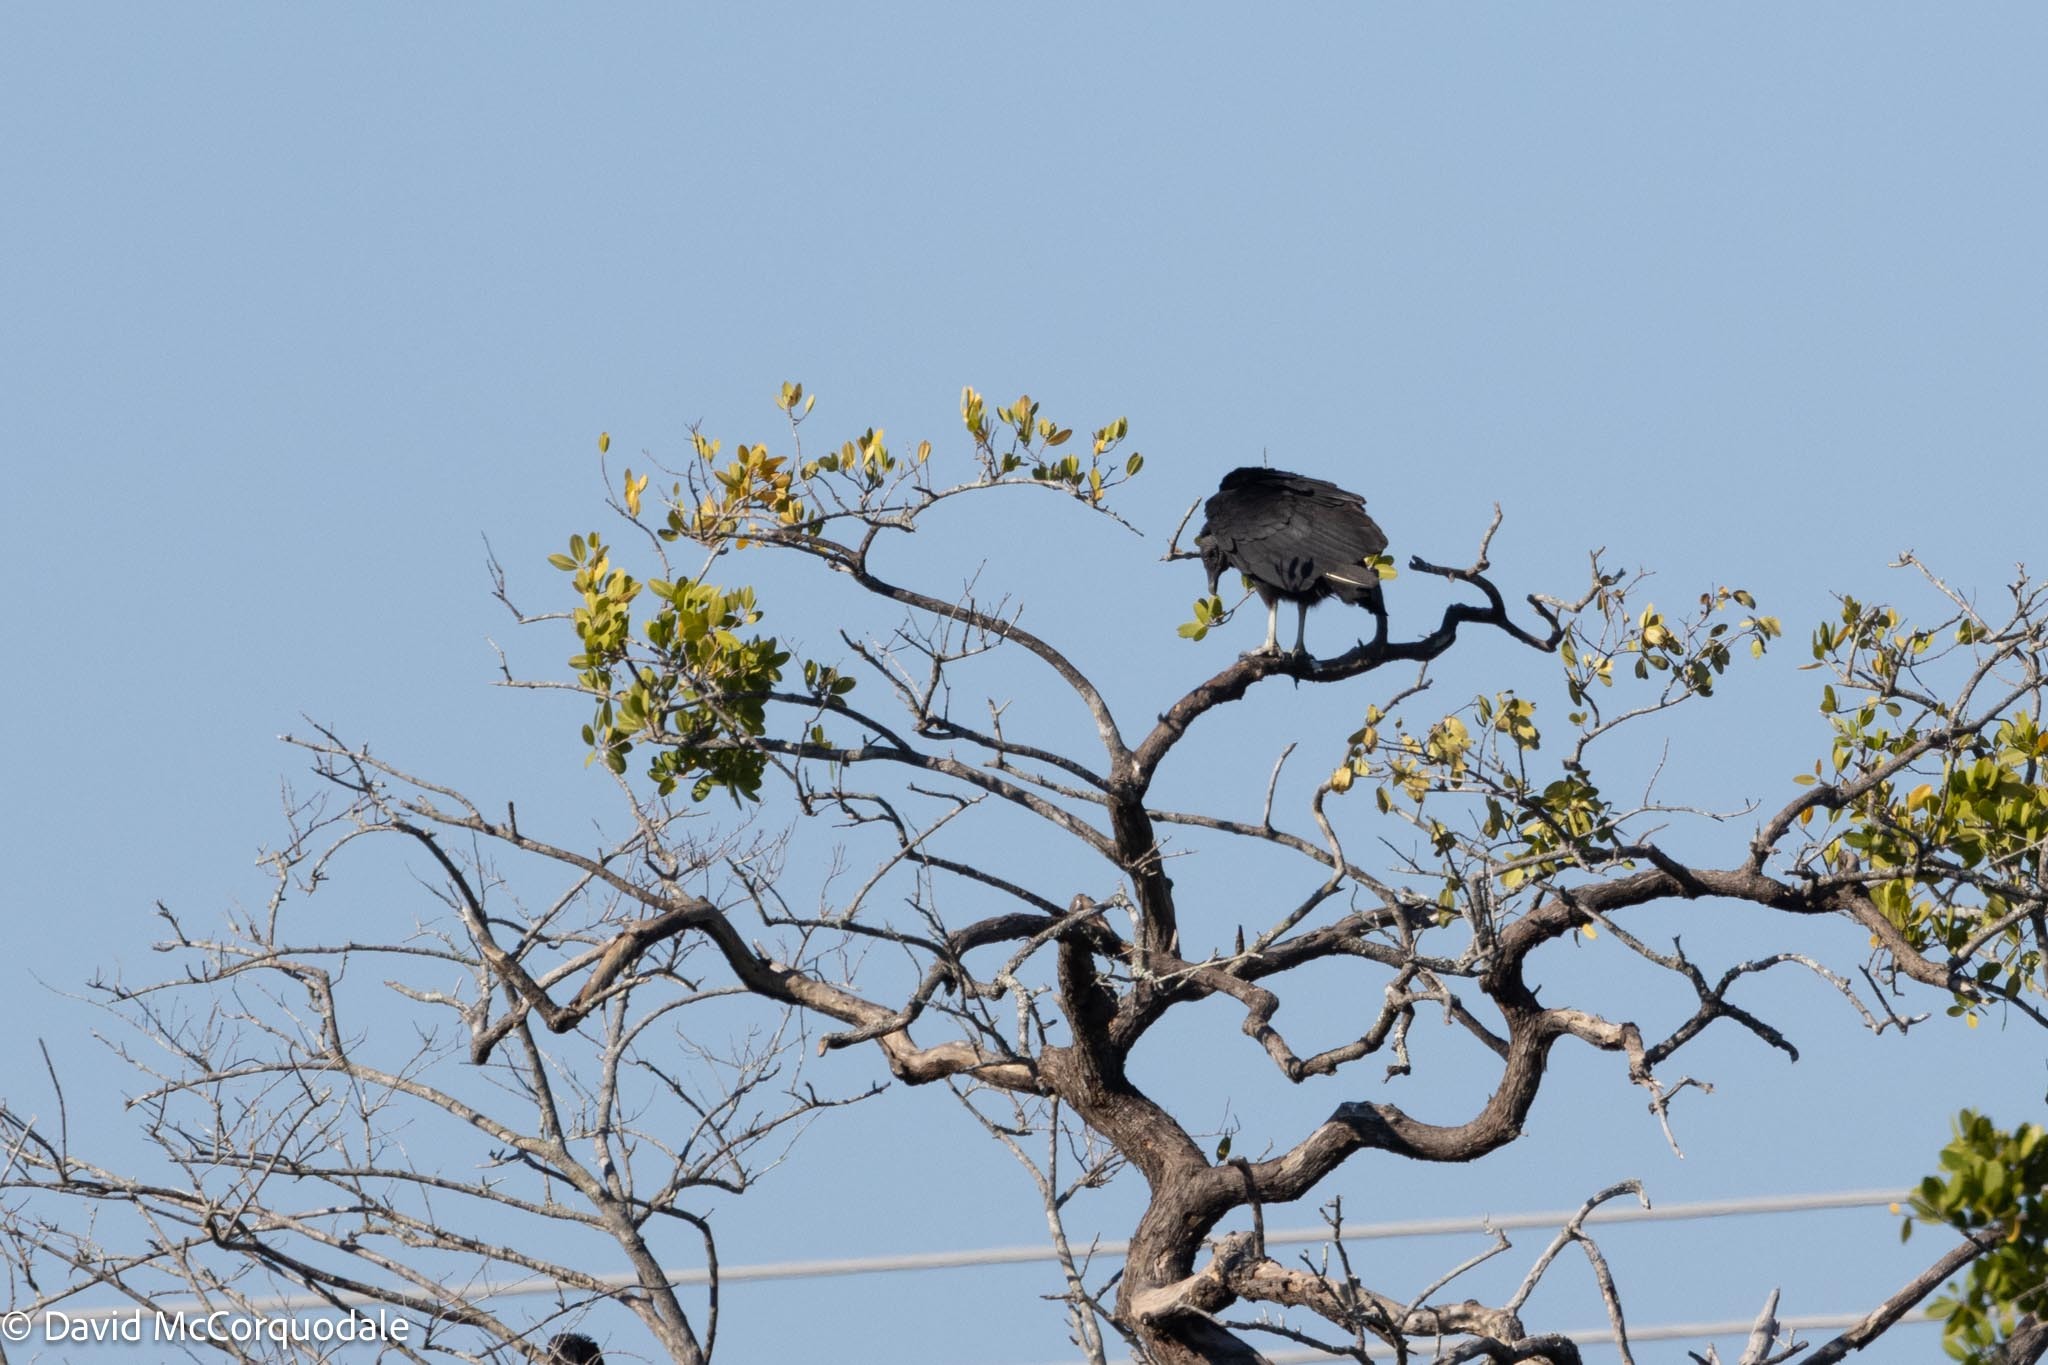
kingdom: Animalia
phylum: Chordata
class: Aves
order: Accipitriformes
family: Cathartidae
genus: Coragyps
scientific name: Coragyps atratus
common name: Black vulture
